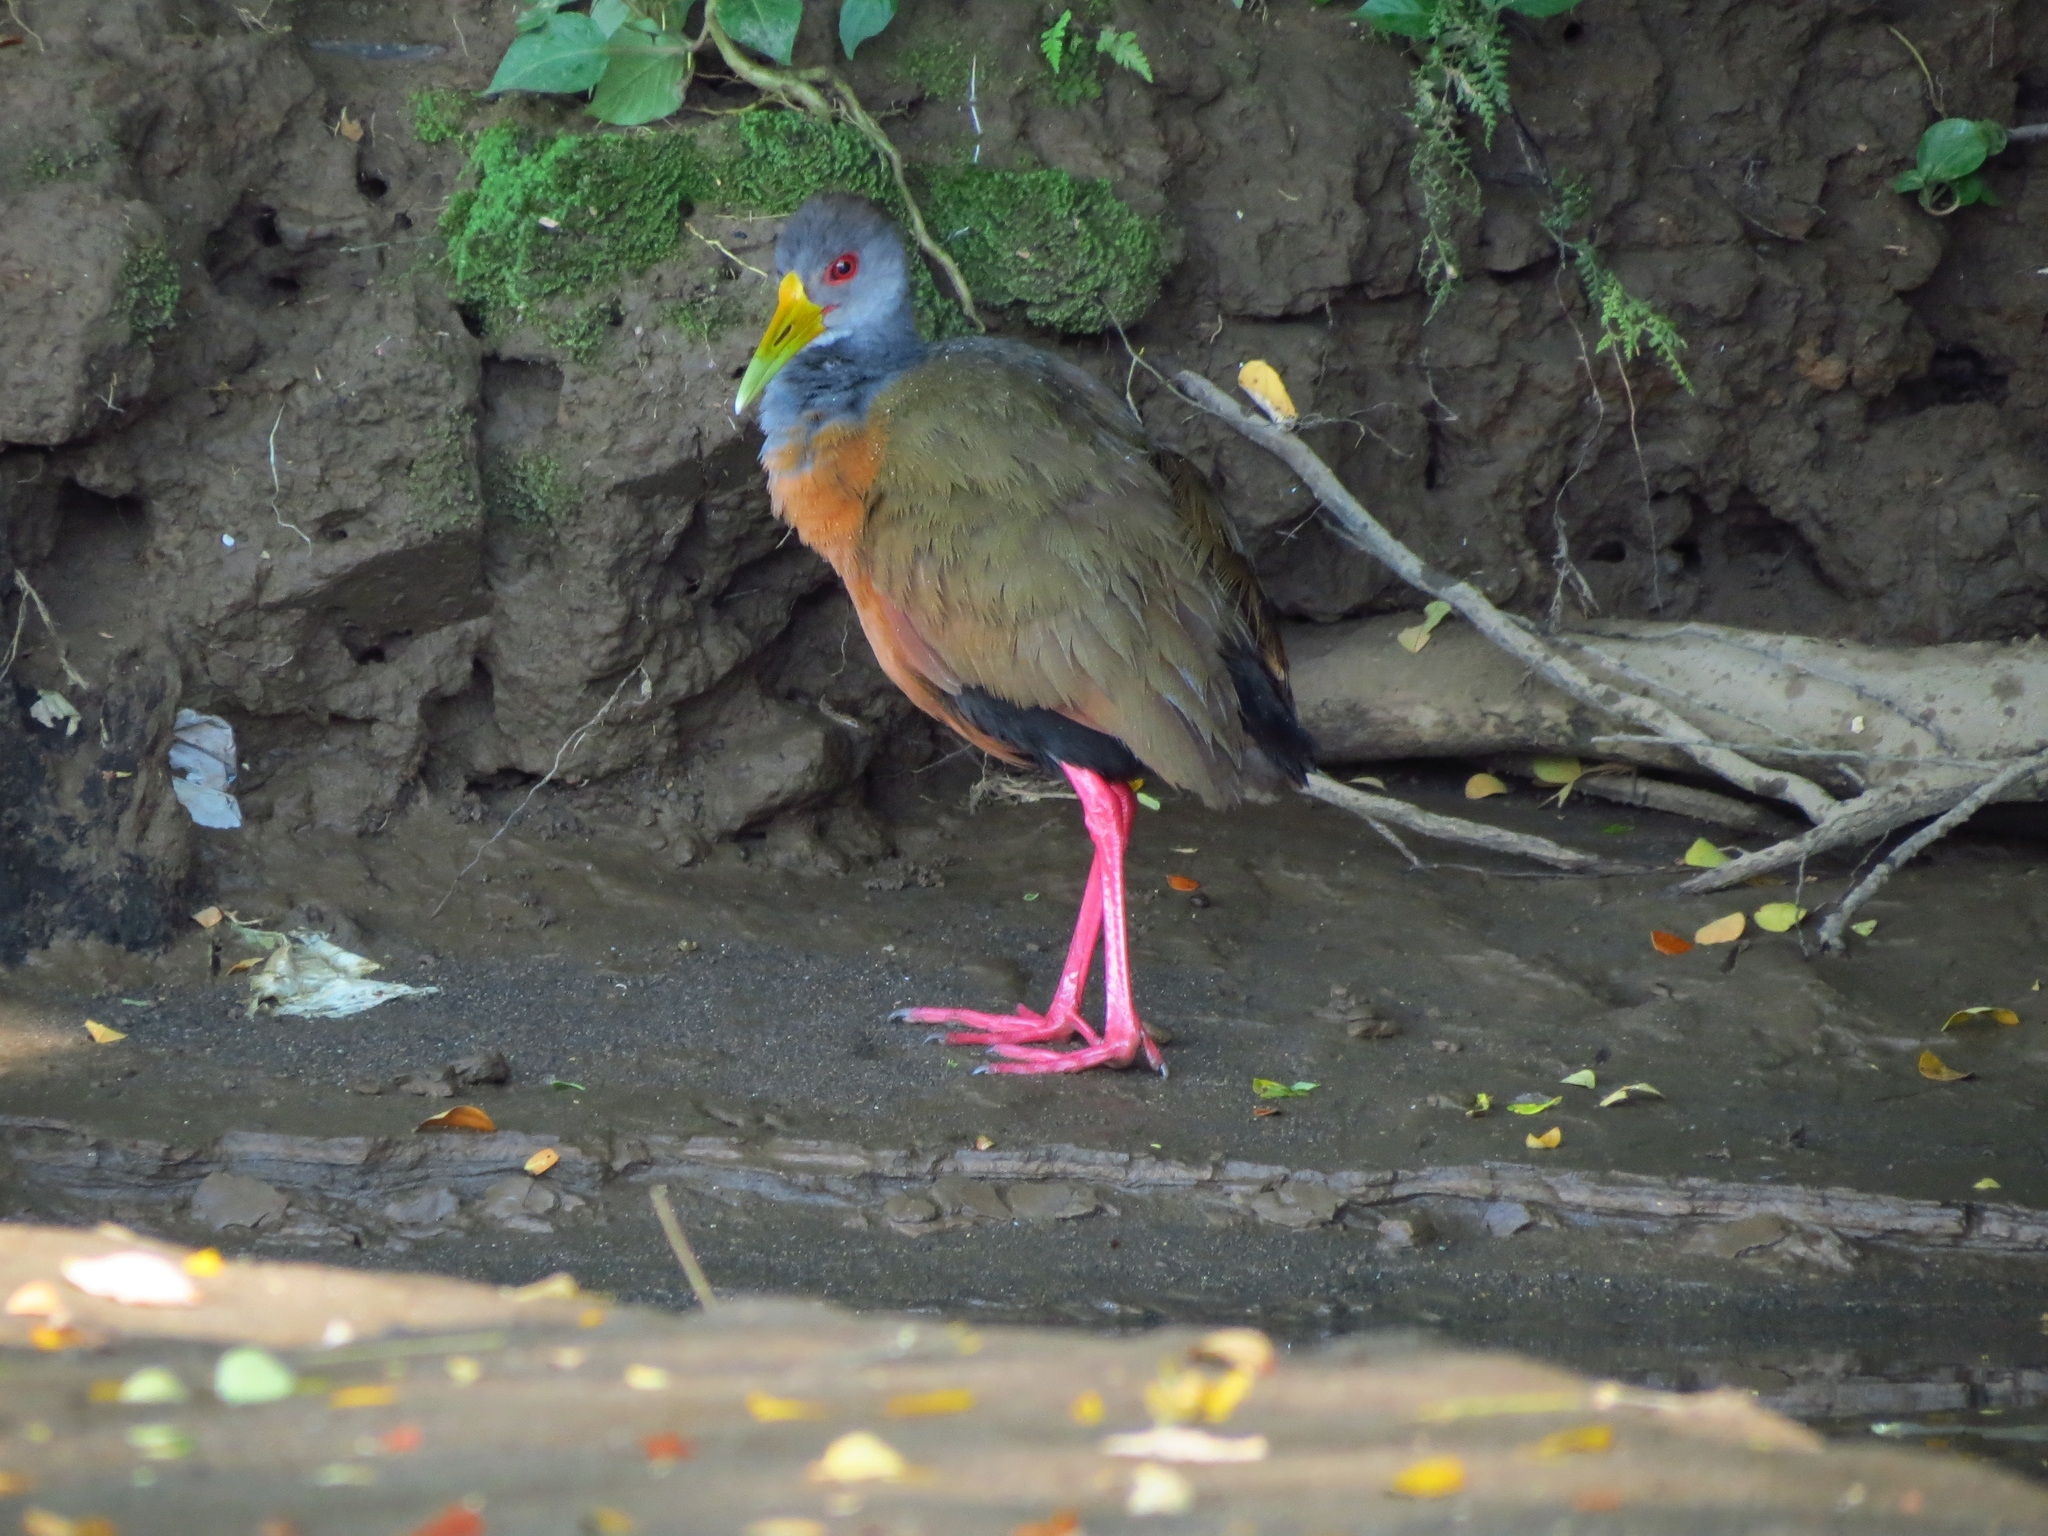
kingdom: Animalia
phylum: Chordata
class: Aves
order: Gruiformes
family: Rallidae
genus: Aramides
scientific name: Aramides cajanea
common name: Gray-necked wood-rail
